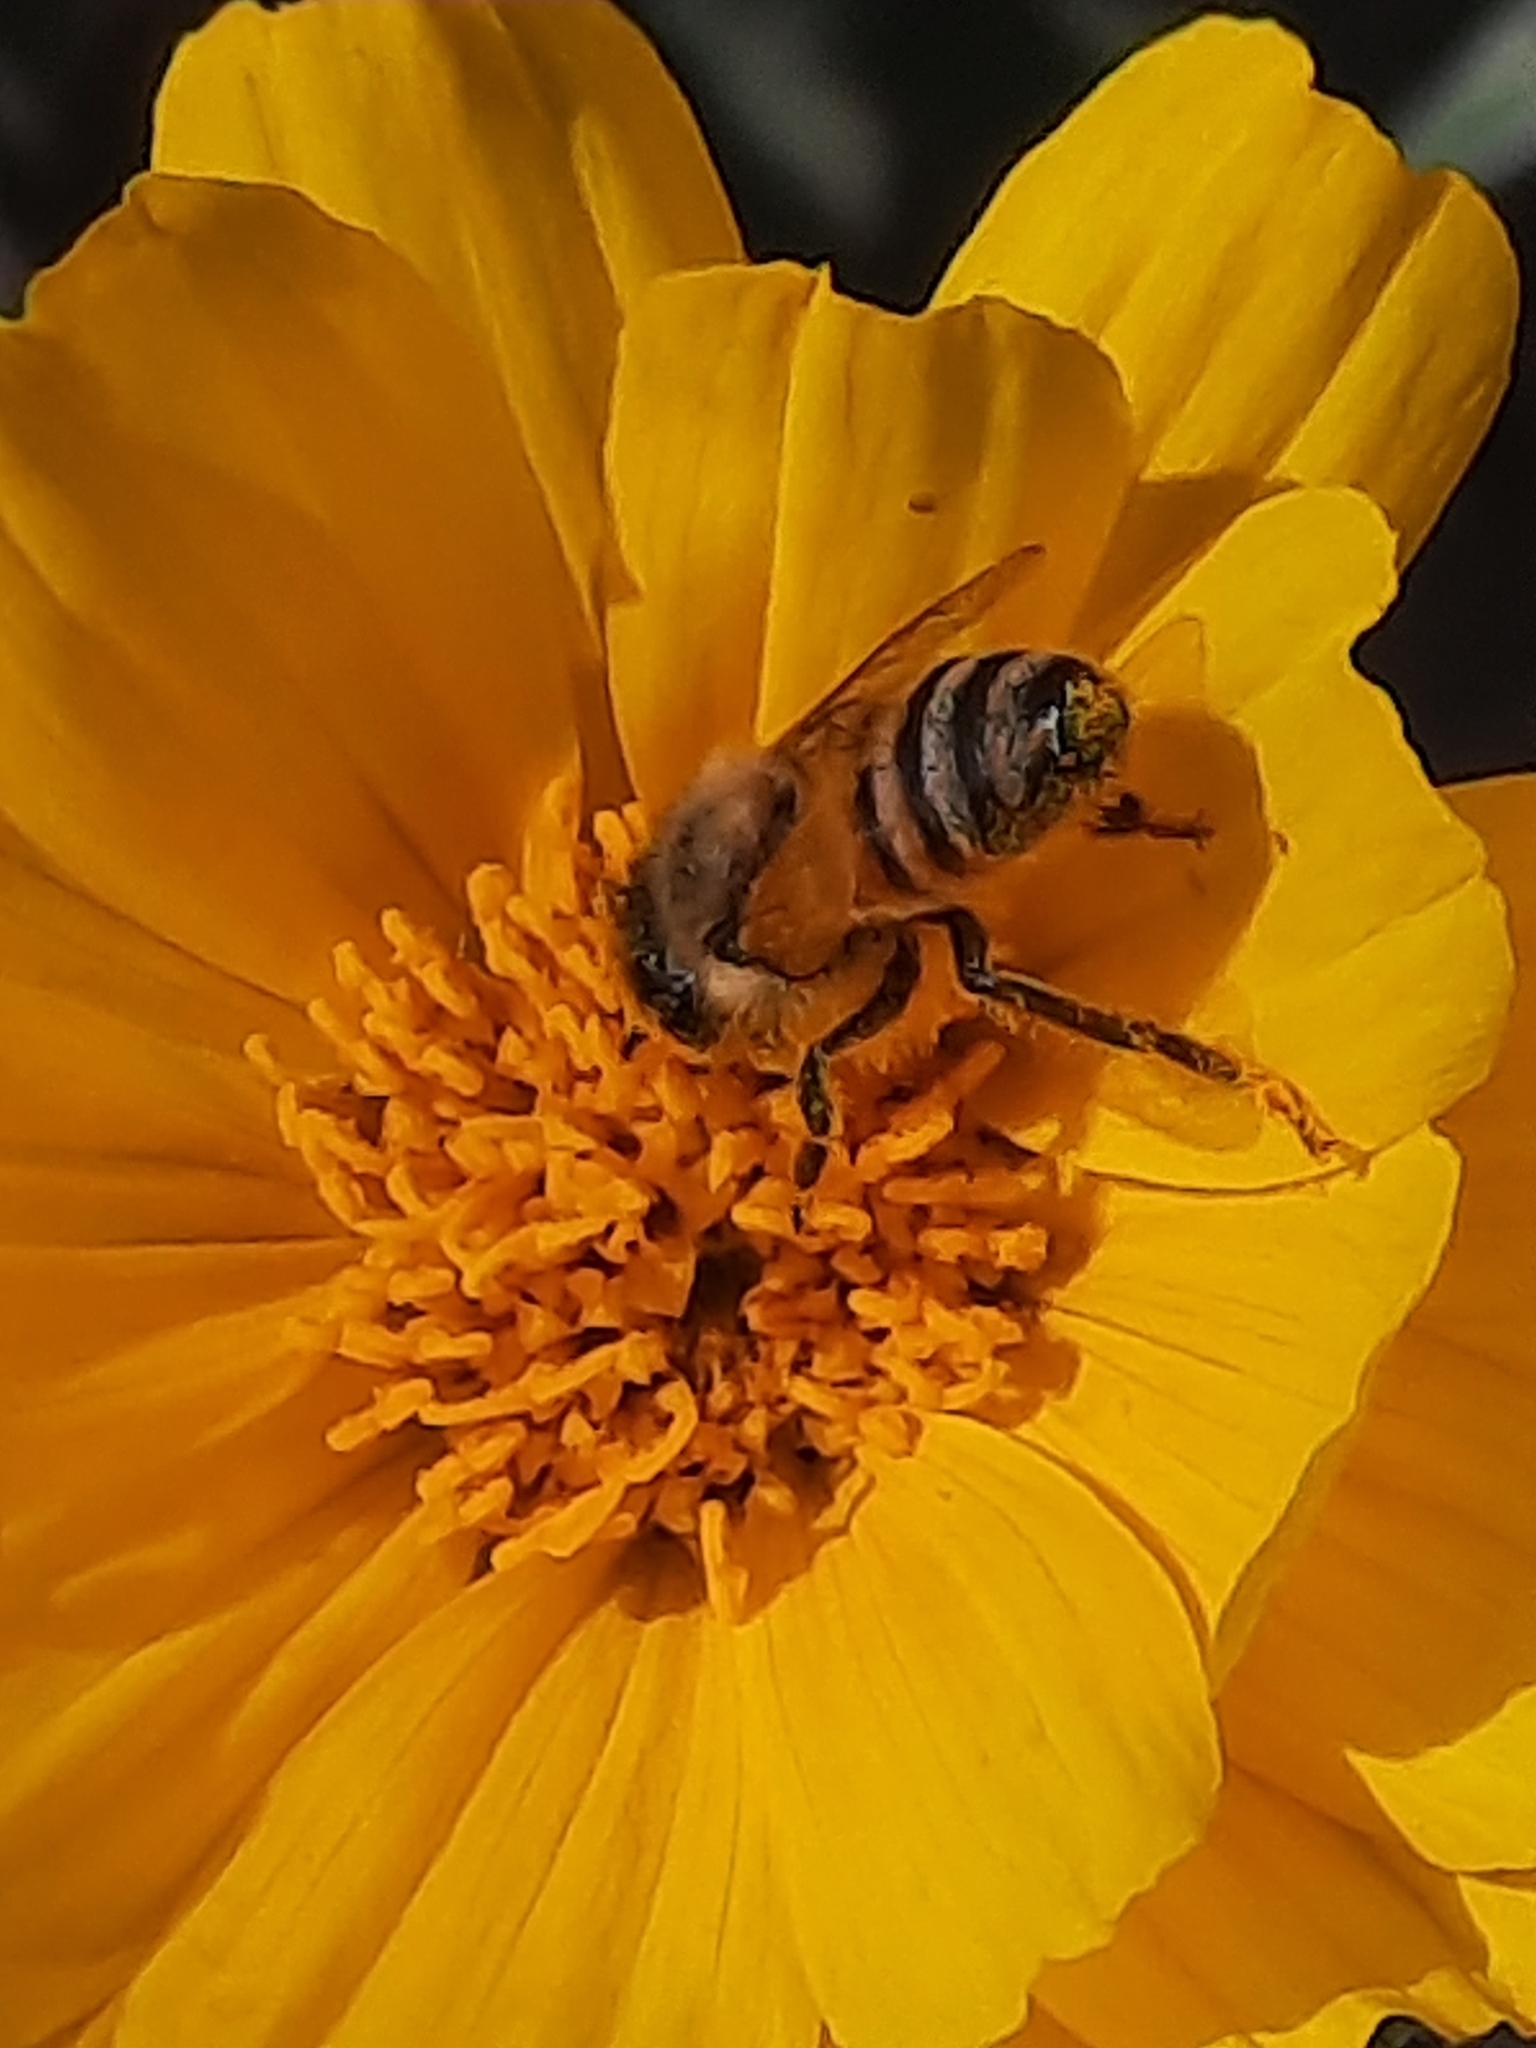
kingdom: Animalia
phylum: Arthropoda
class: Insecta
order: Hymenoptera
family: Apidae
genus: Apis
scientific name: Apis mellifera
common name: Honey bee
